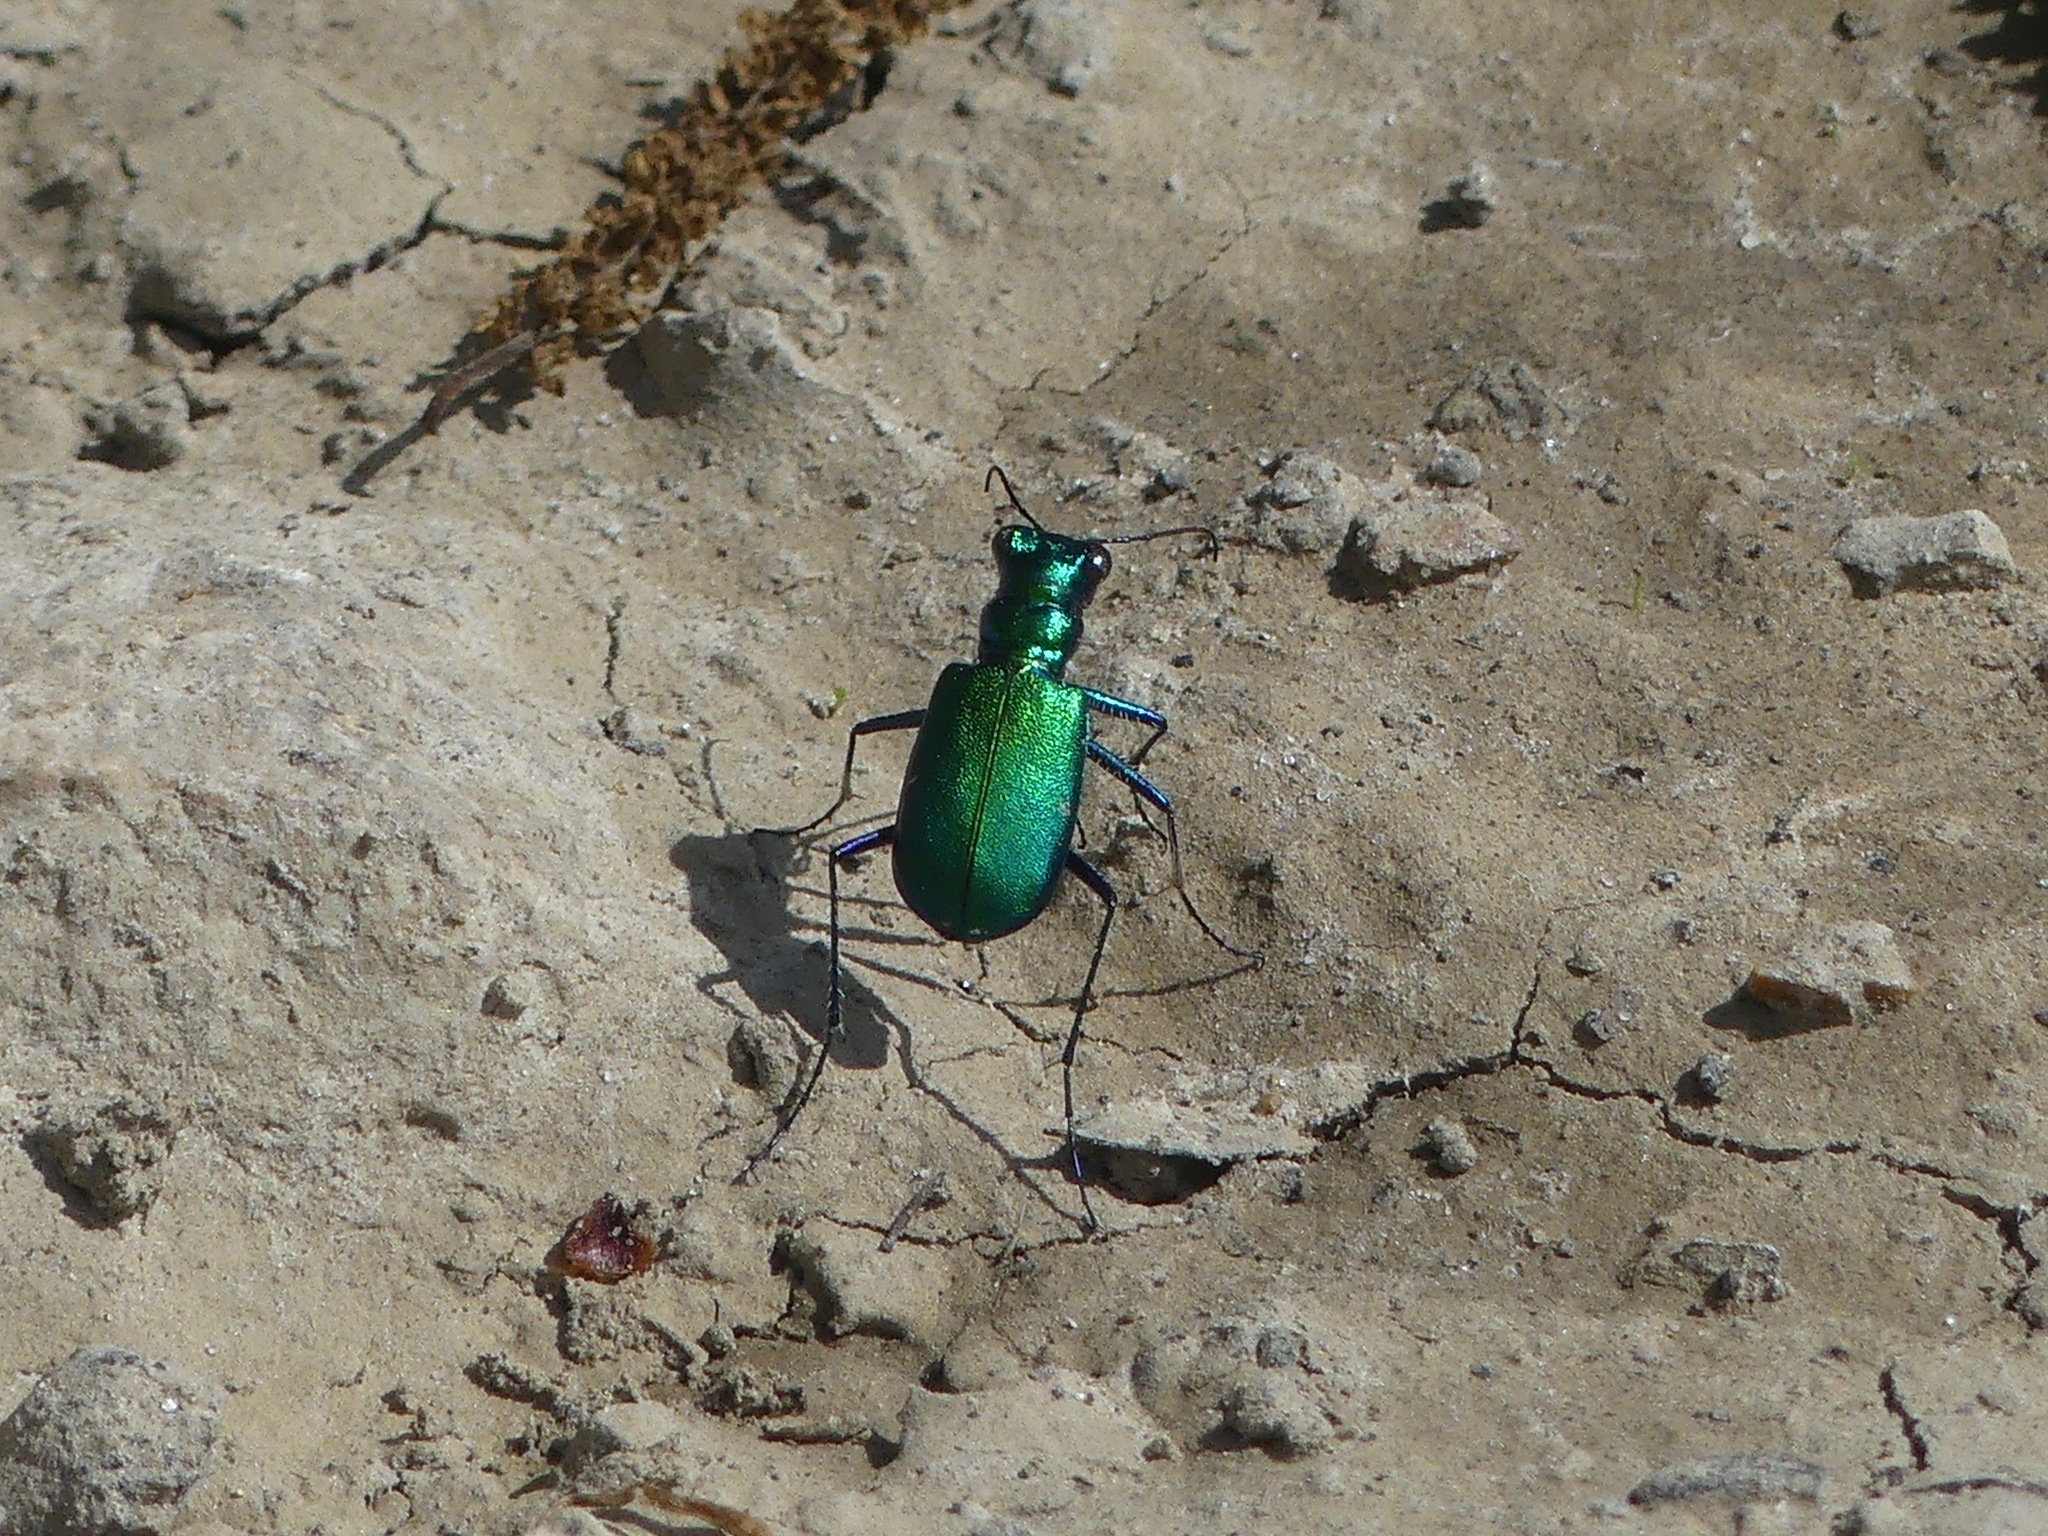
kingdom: Animalia
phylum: Arthropoda
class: Insecta
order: Coleoptera
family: Carabidae
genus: Cicindela
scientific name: Cicindela sexguttata
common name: Six-spotted tiger beetle
